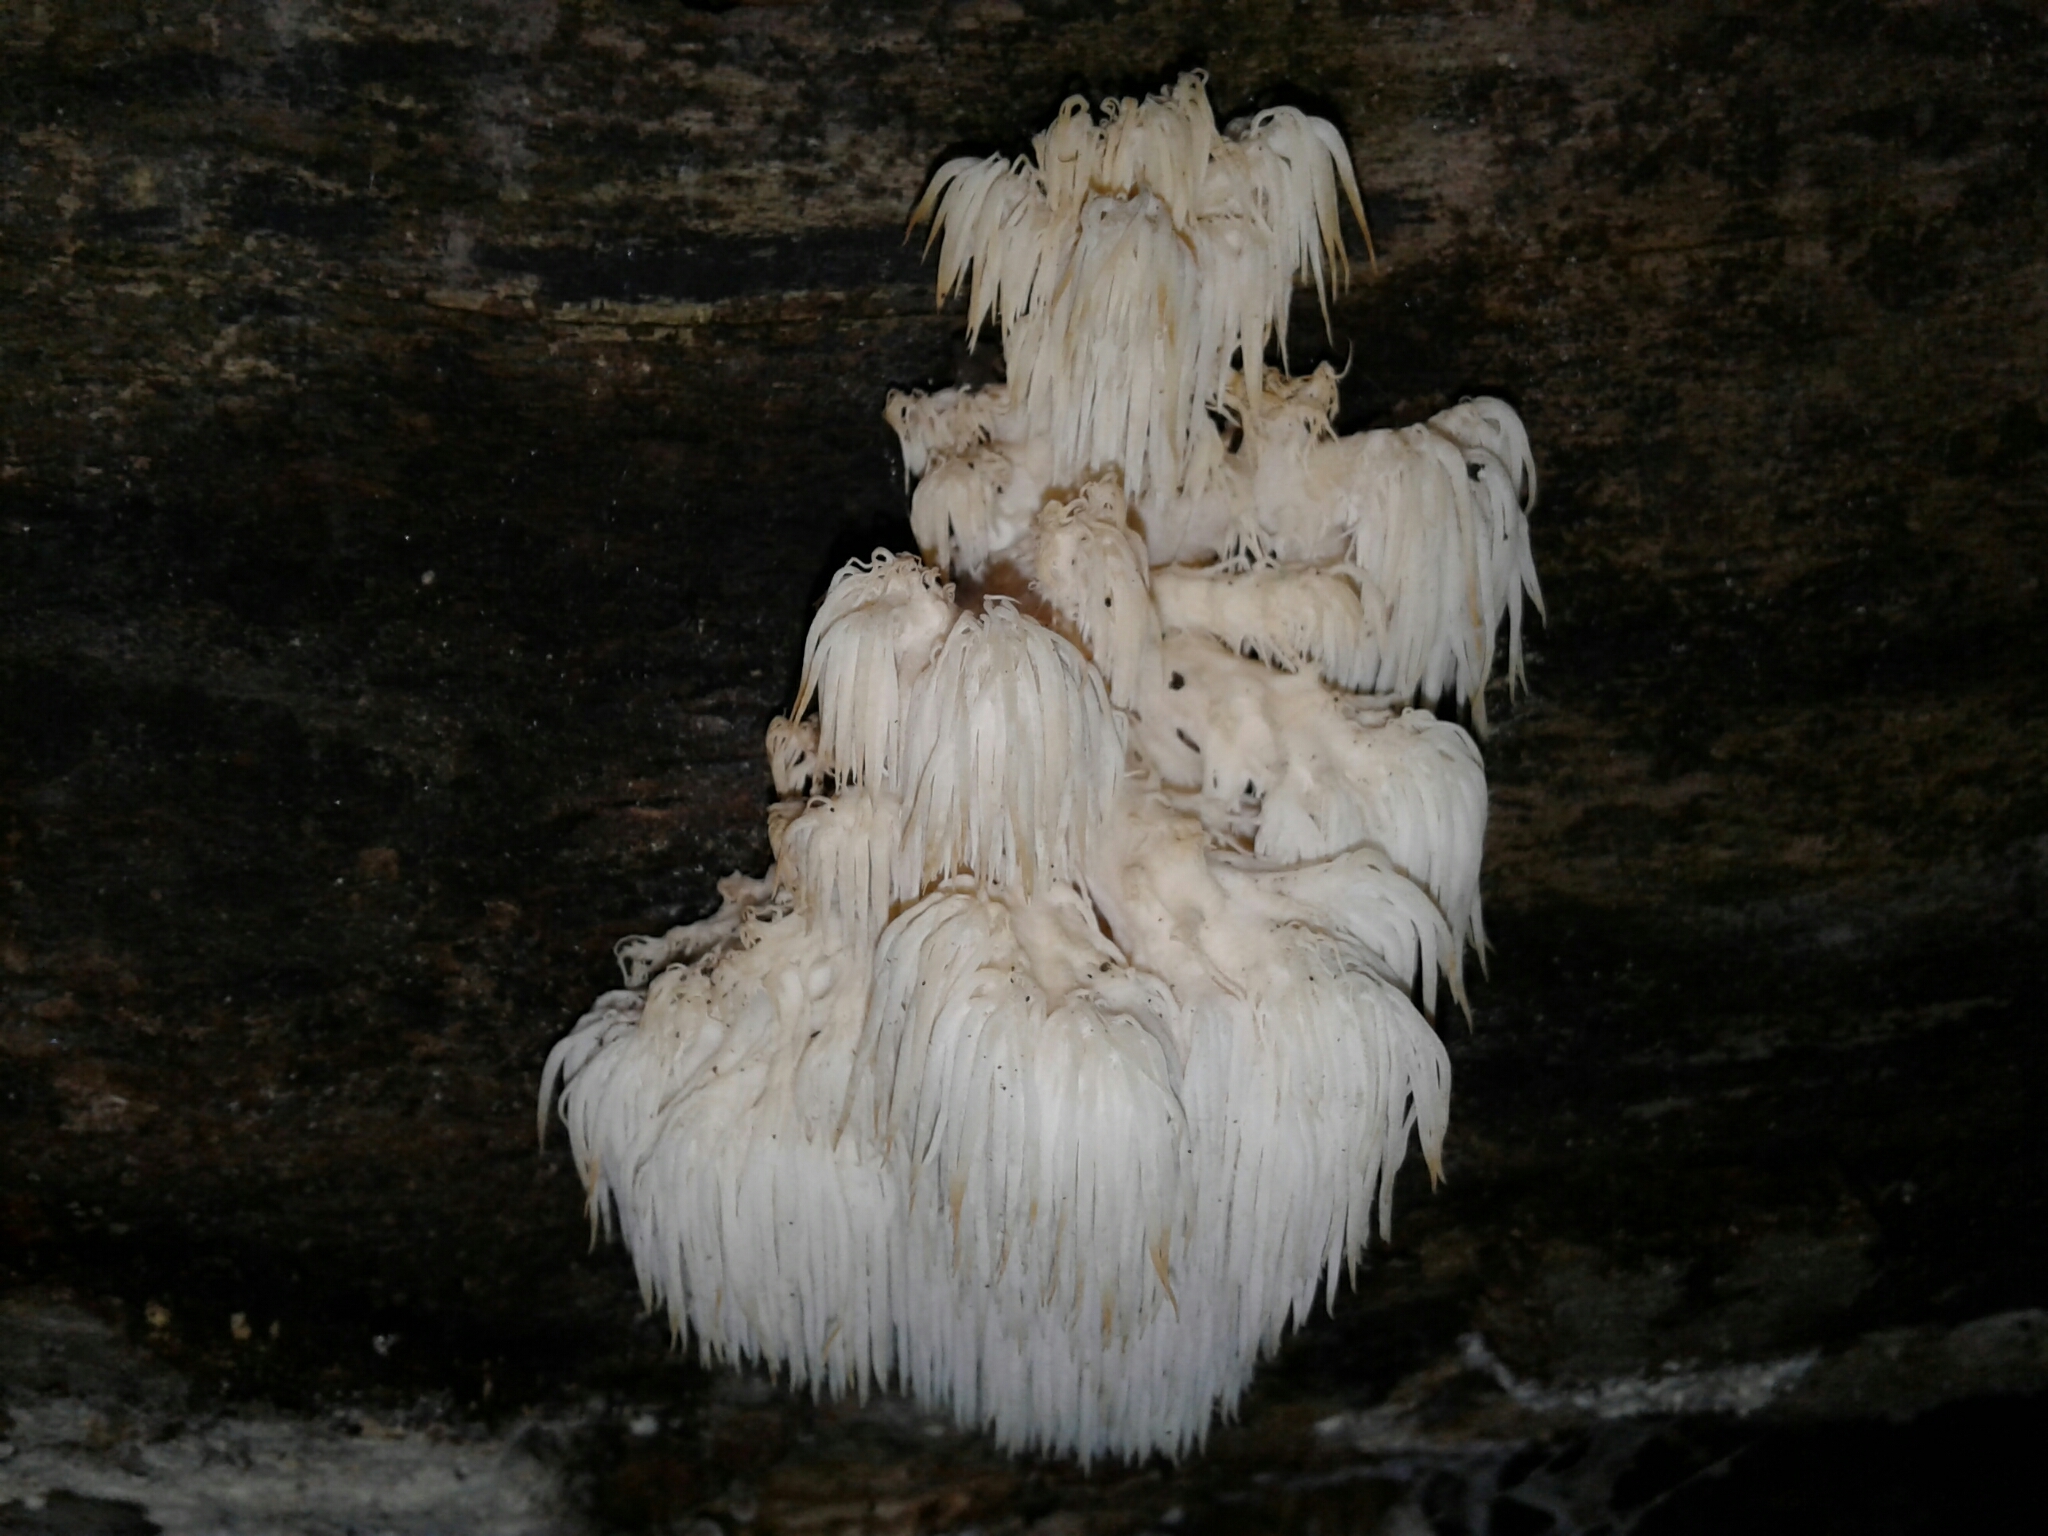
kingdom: Fungi
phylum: Basidiomycota
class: Agaricomycetes
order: Russulales
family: Hericiaceae
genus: Hericium
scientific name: Hericium americanum
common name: Bear's head tooth
